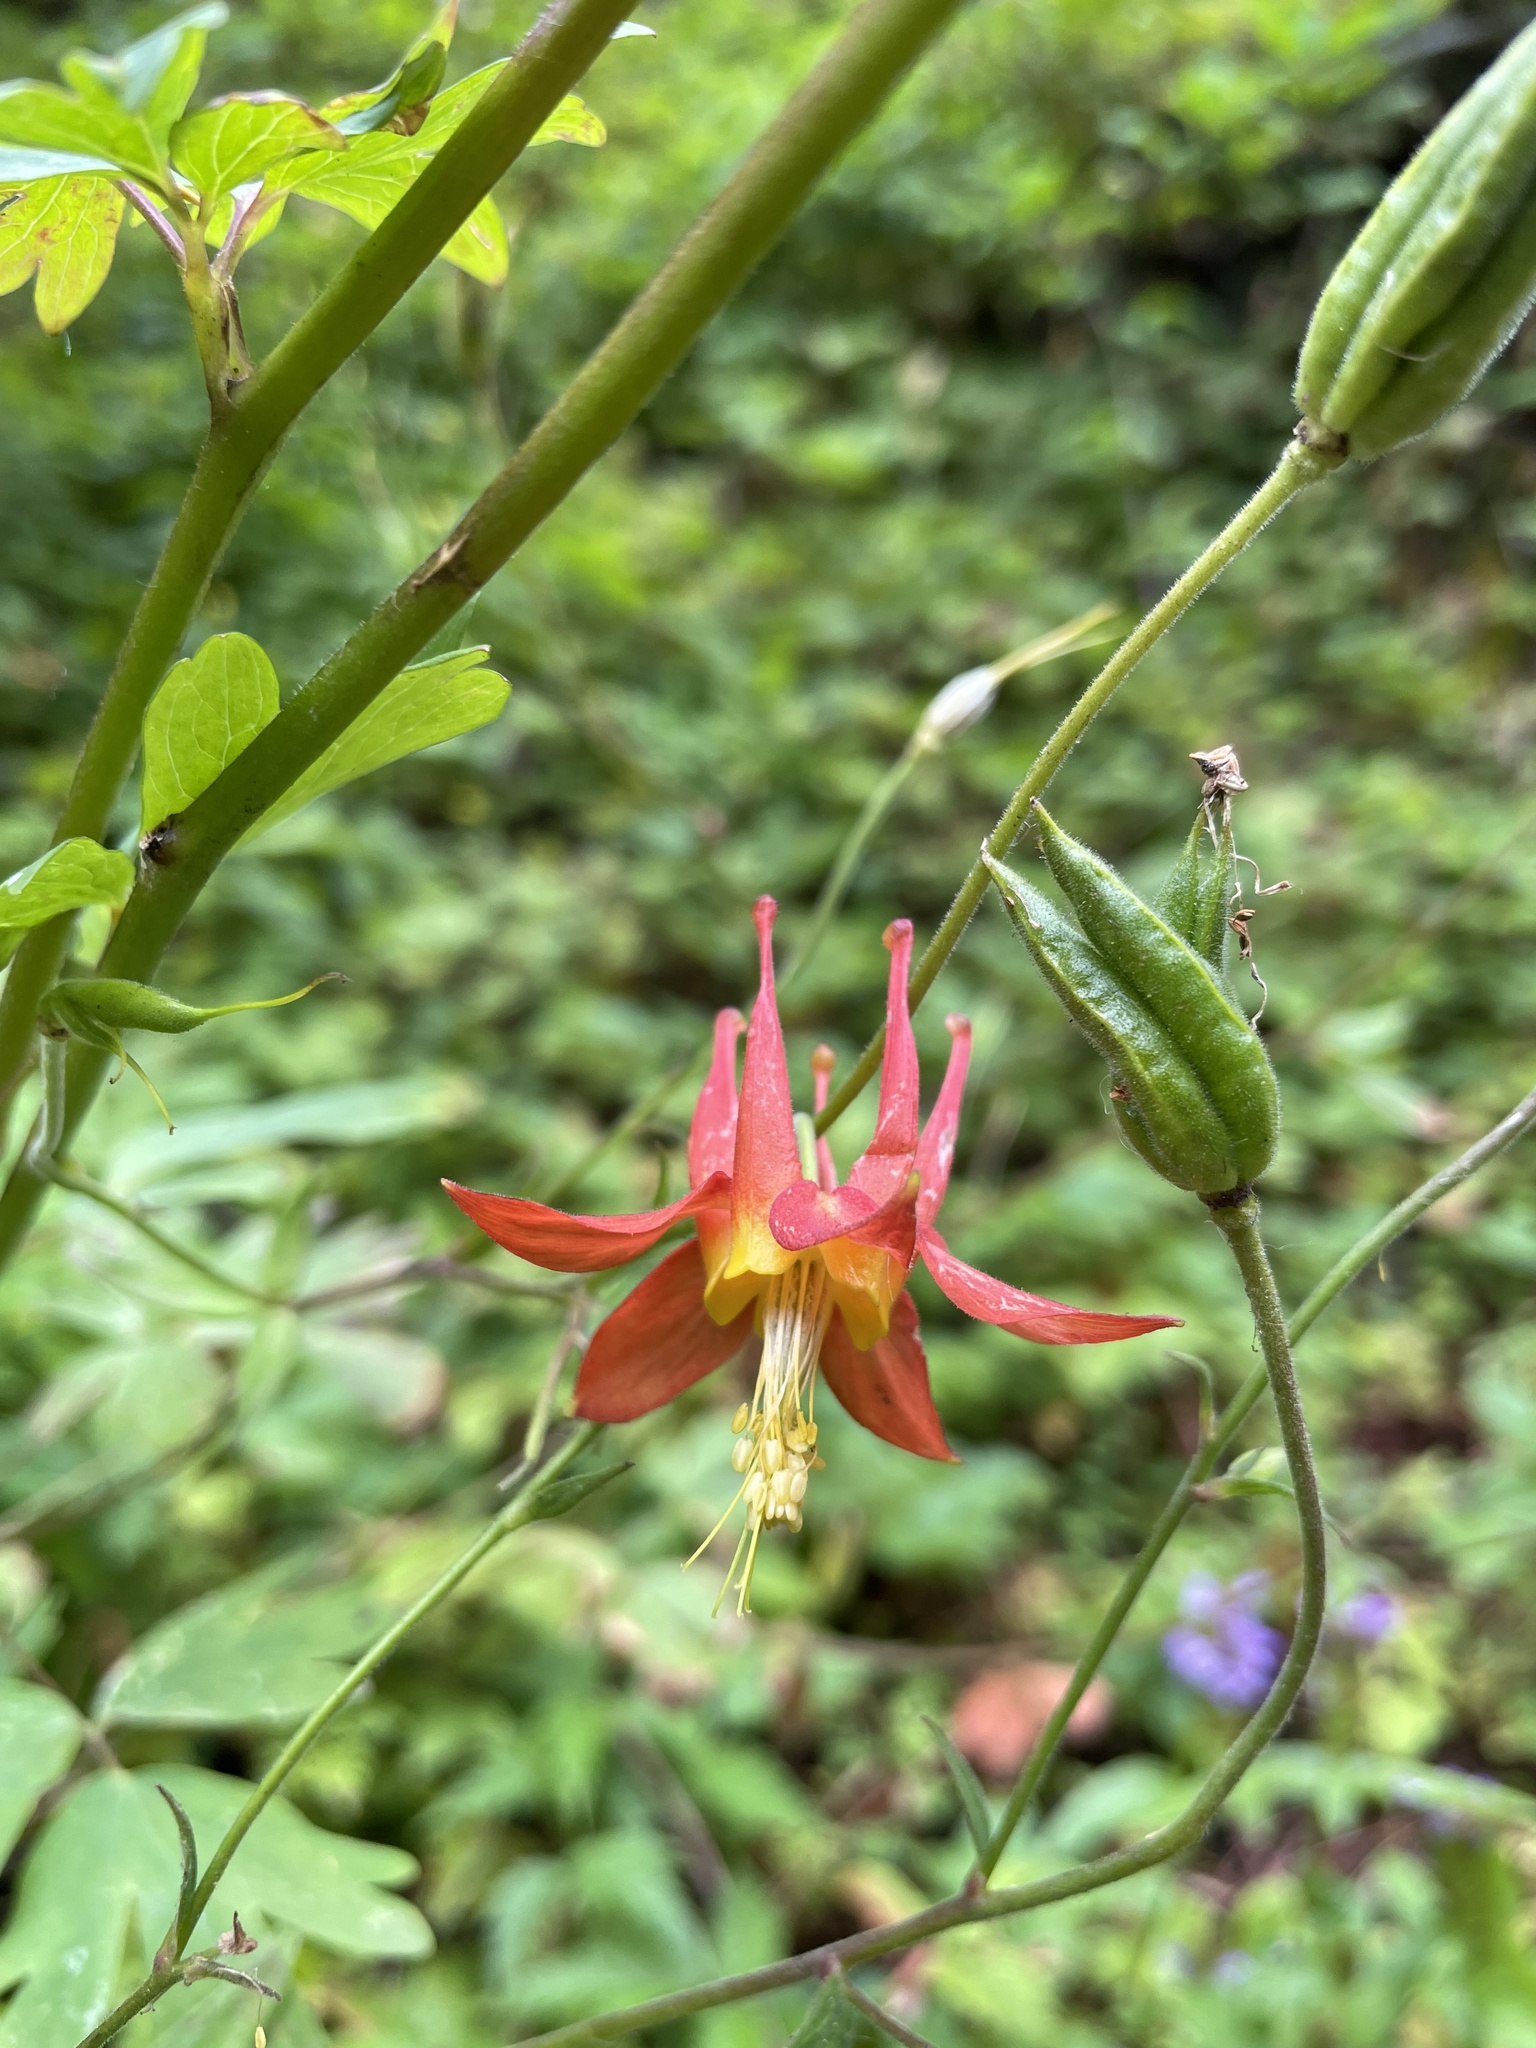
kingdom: Plantae
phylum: Tracheophyta
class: Magnoliopsida
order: Ranunculales
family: Ranunculaceae
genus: Aquilegia
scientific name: Aquilegia formosa
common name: Sitka columbine
